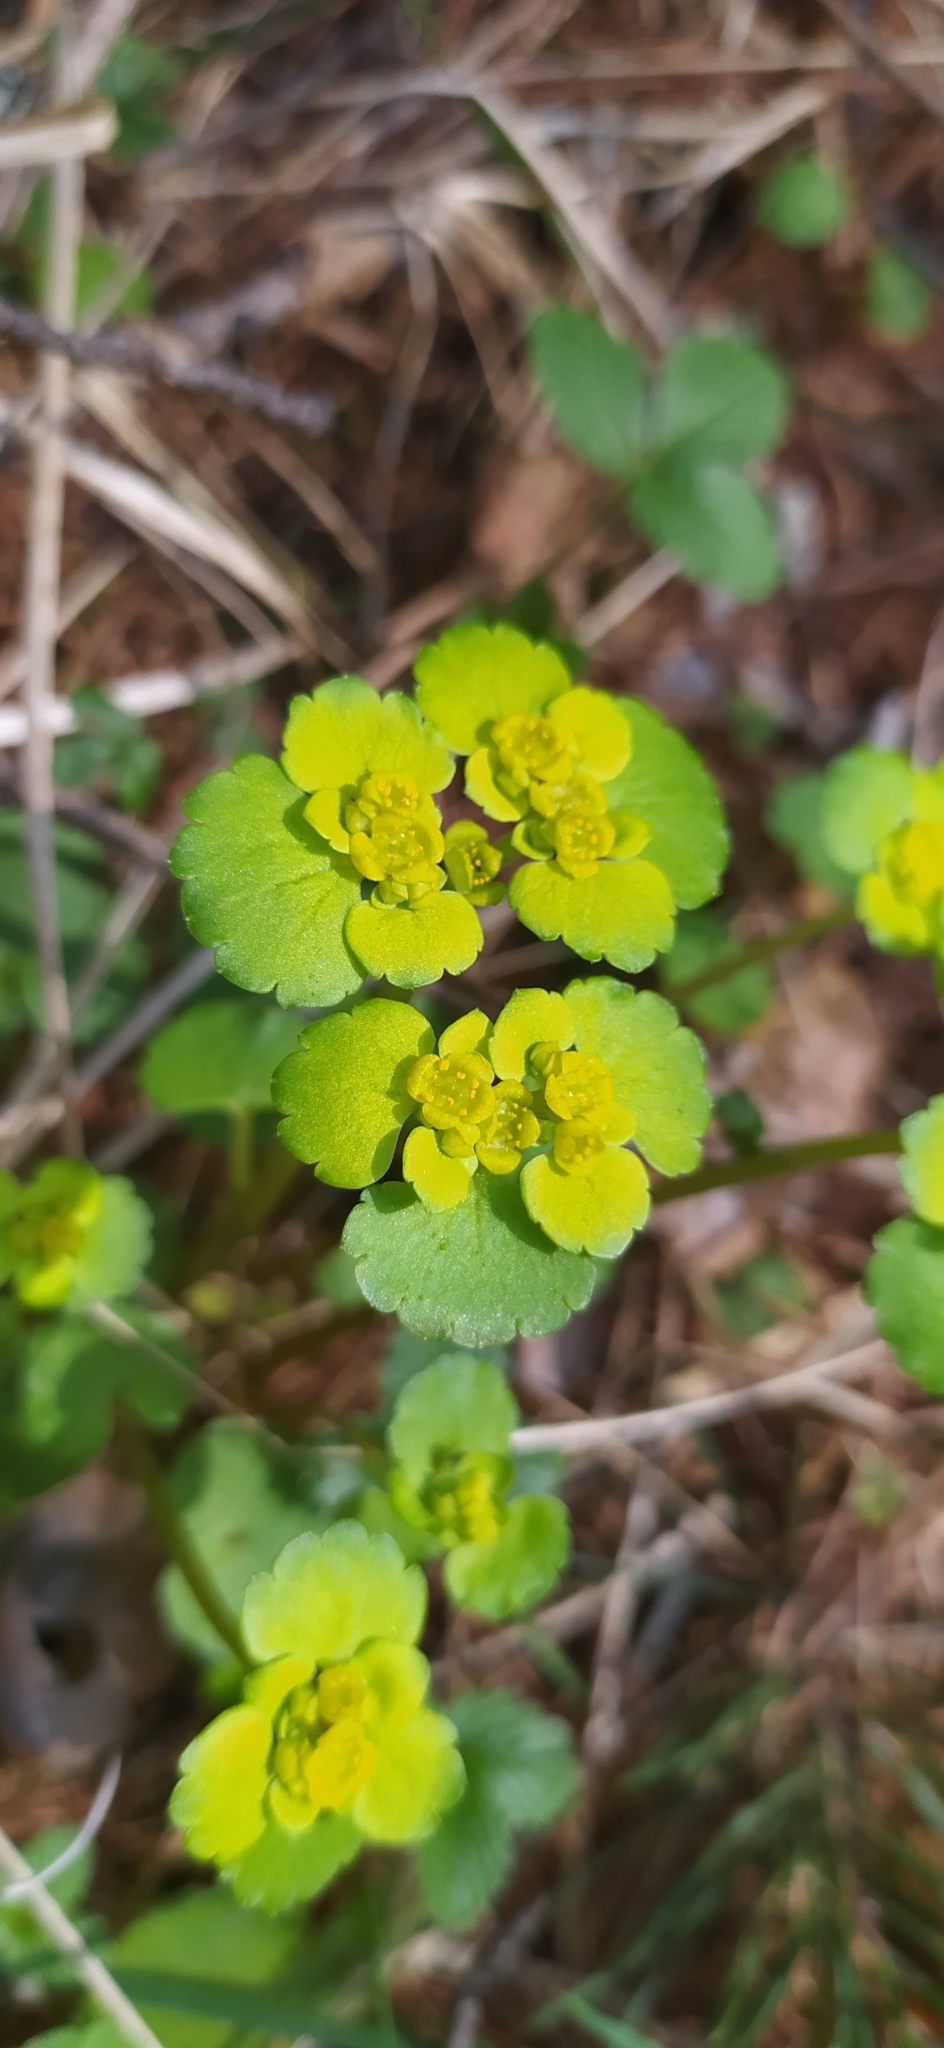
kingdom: Plantae
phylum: Tracheophyta
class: Magnoliopsida
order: Saxifragales
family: Saxifragaceae
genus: Chrysosplenium
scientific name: Chrysosplenium alternifolium
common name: Alternate-leaved golden-saxifrage
